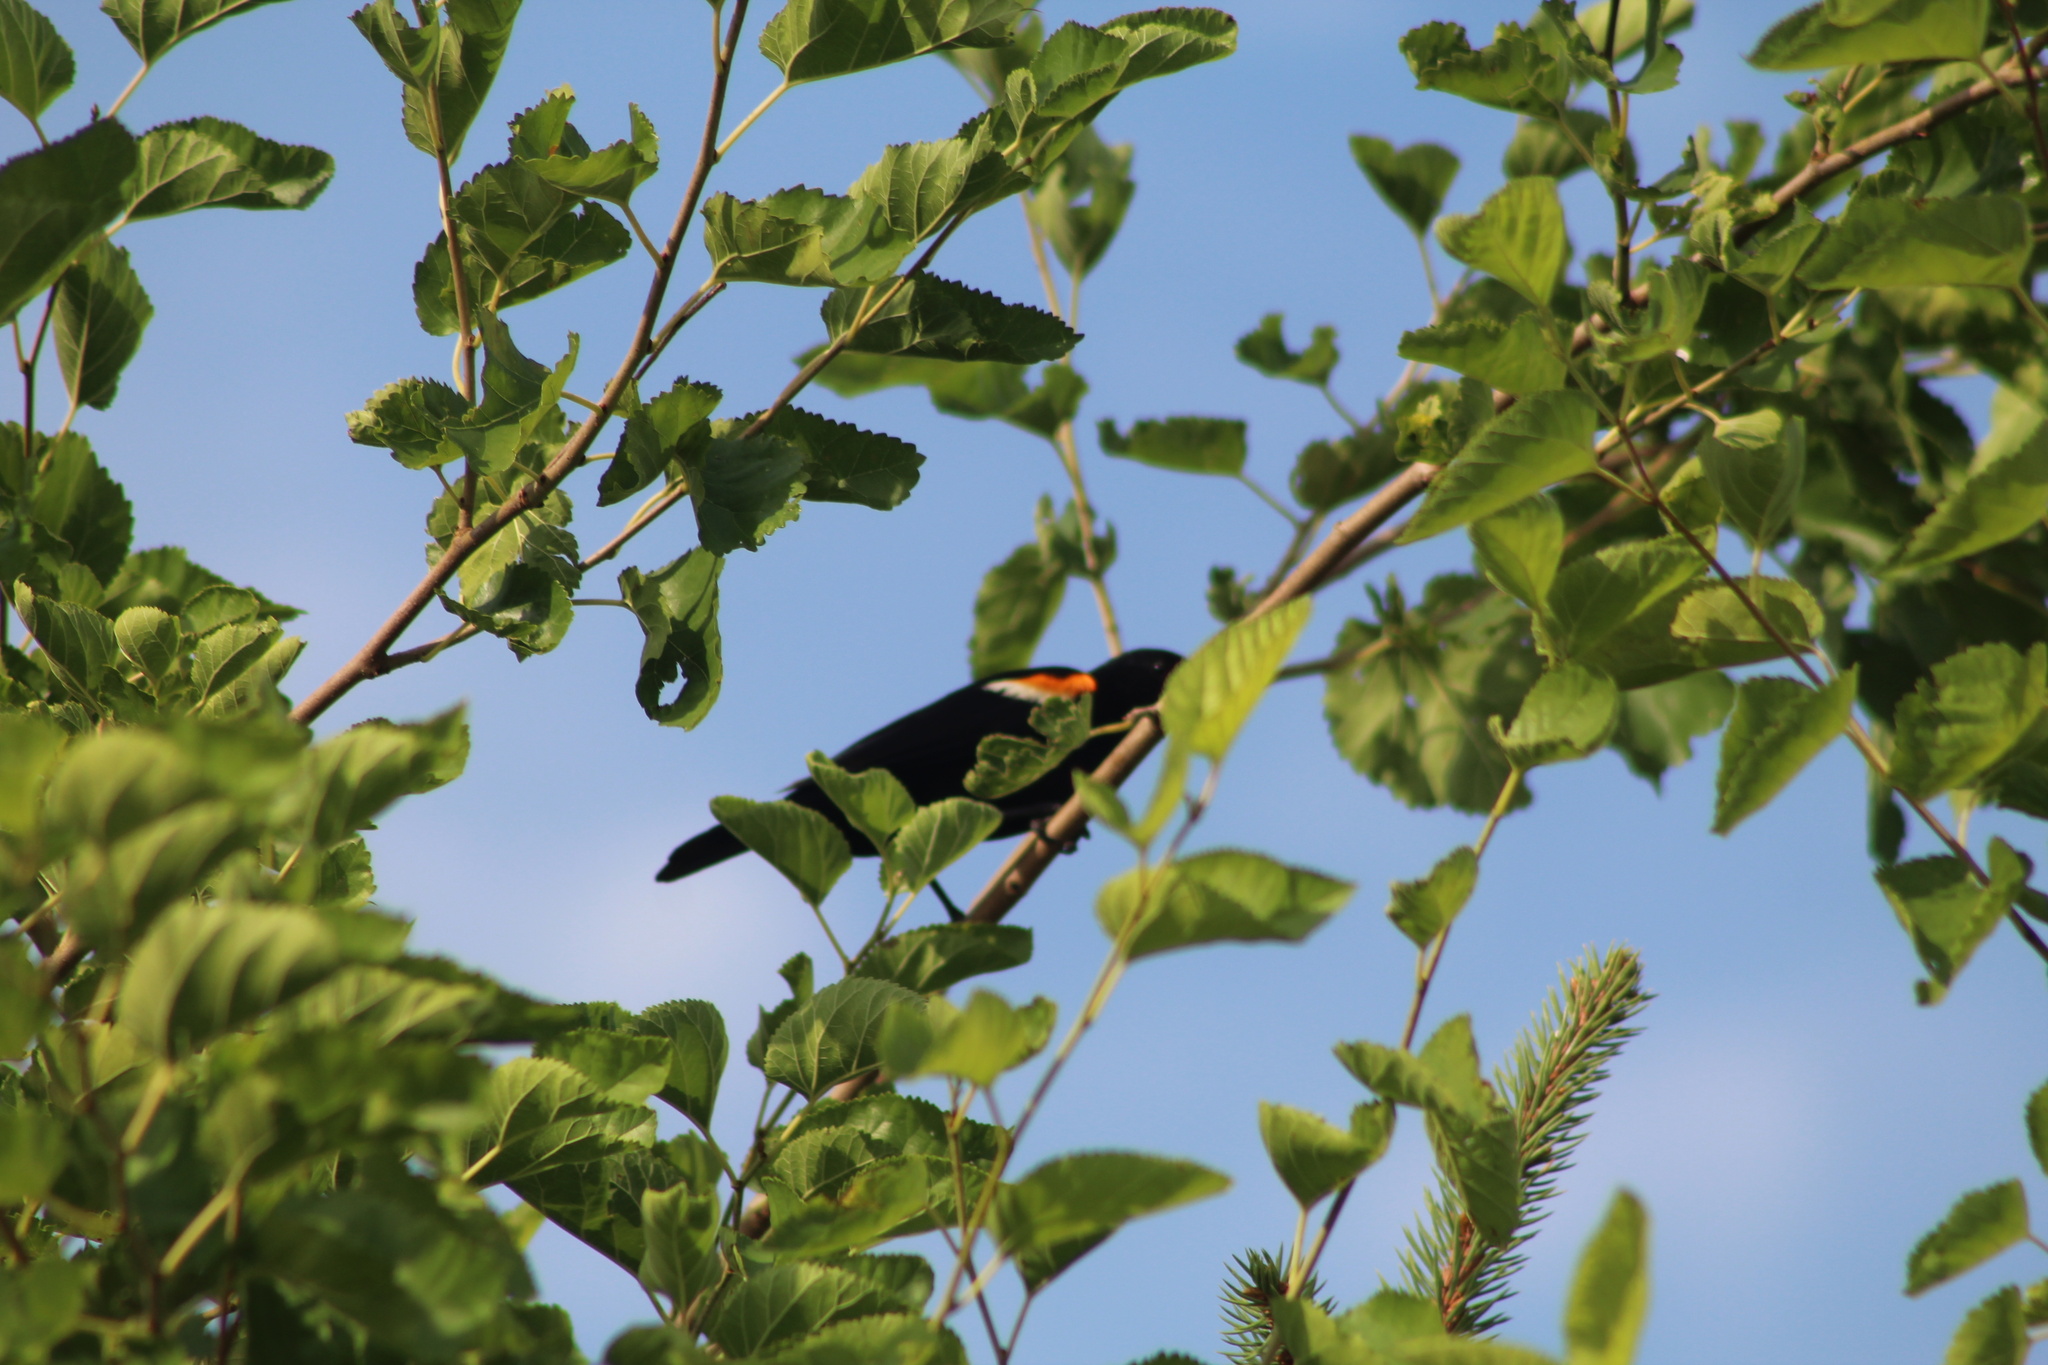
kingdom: Animalia
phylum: Chordata
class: Aves
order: Passeriformes
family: Icteridae
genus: Agelaius
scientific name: Agelaius phoeniceus
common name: Red-winged blackbird
